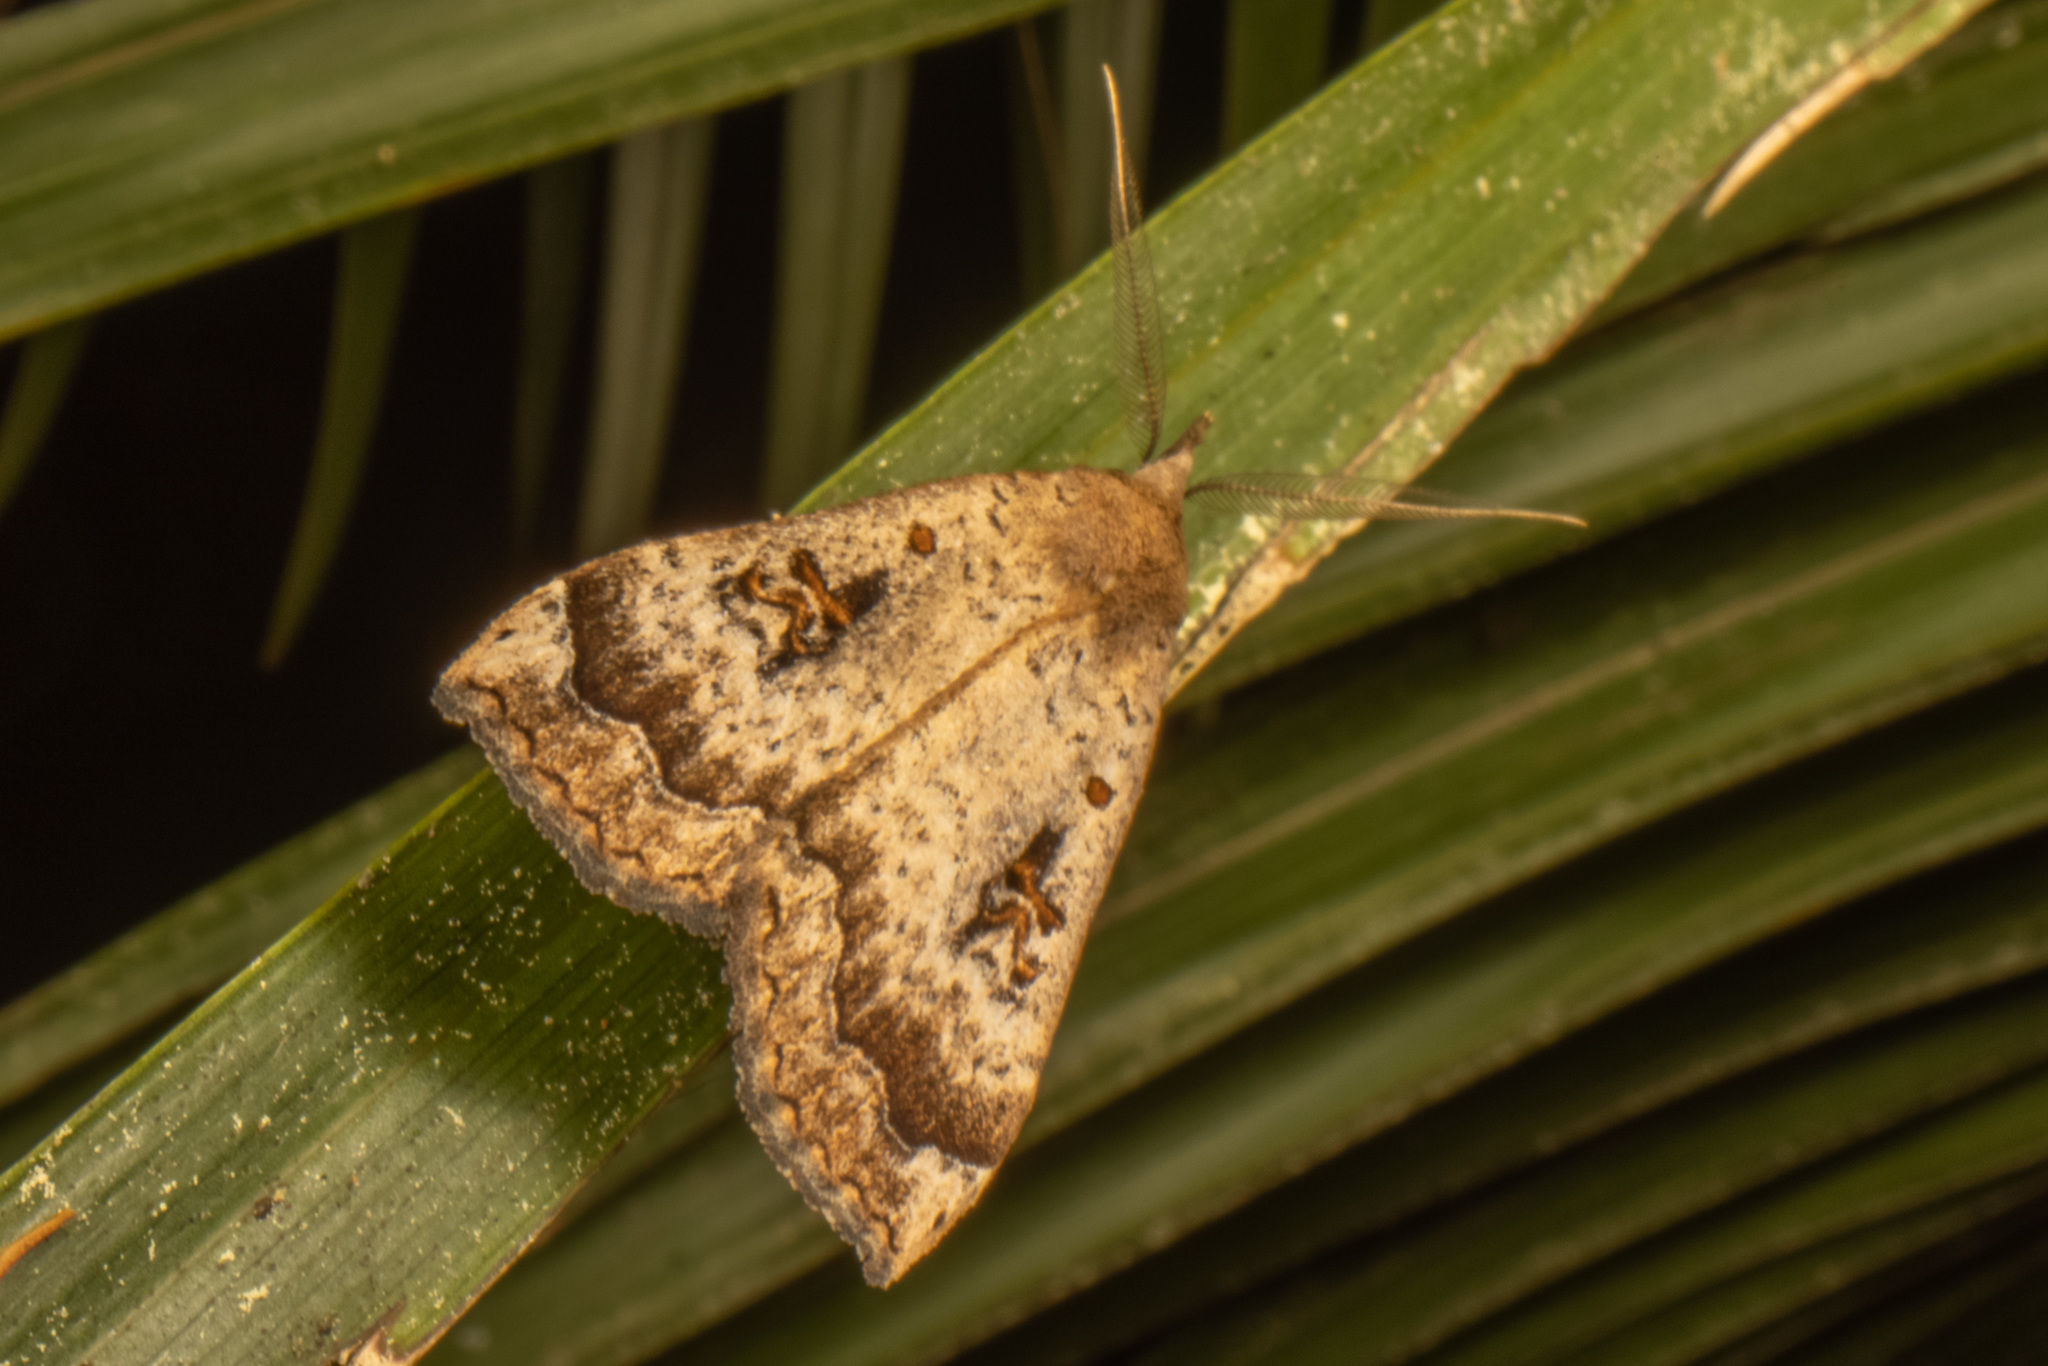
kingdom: Animalia
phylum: Arthropoda
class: Insecta
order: Lepidoptera
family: Erebidae
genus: Rhapsa
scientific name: Rhapsa scotosialis
